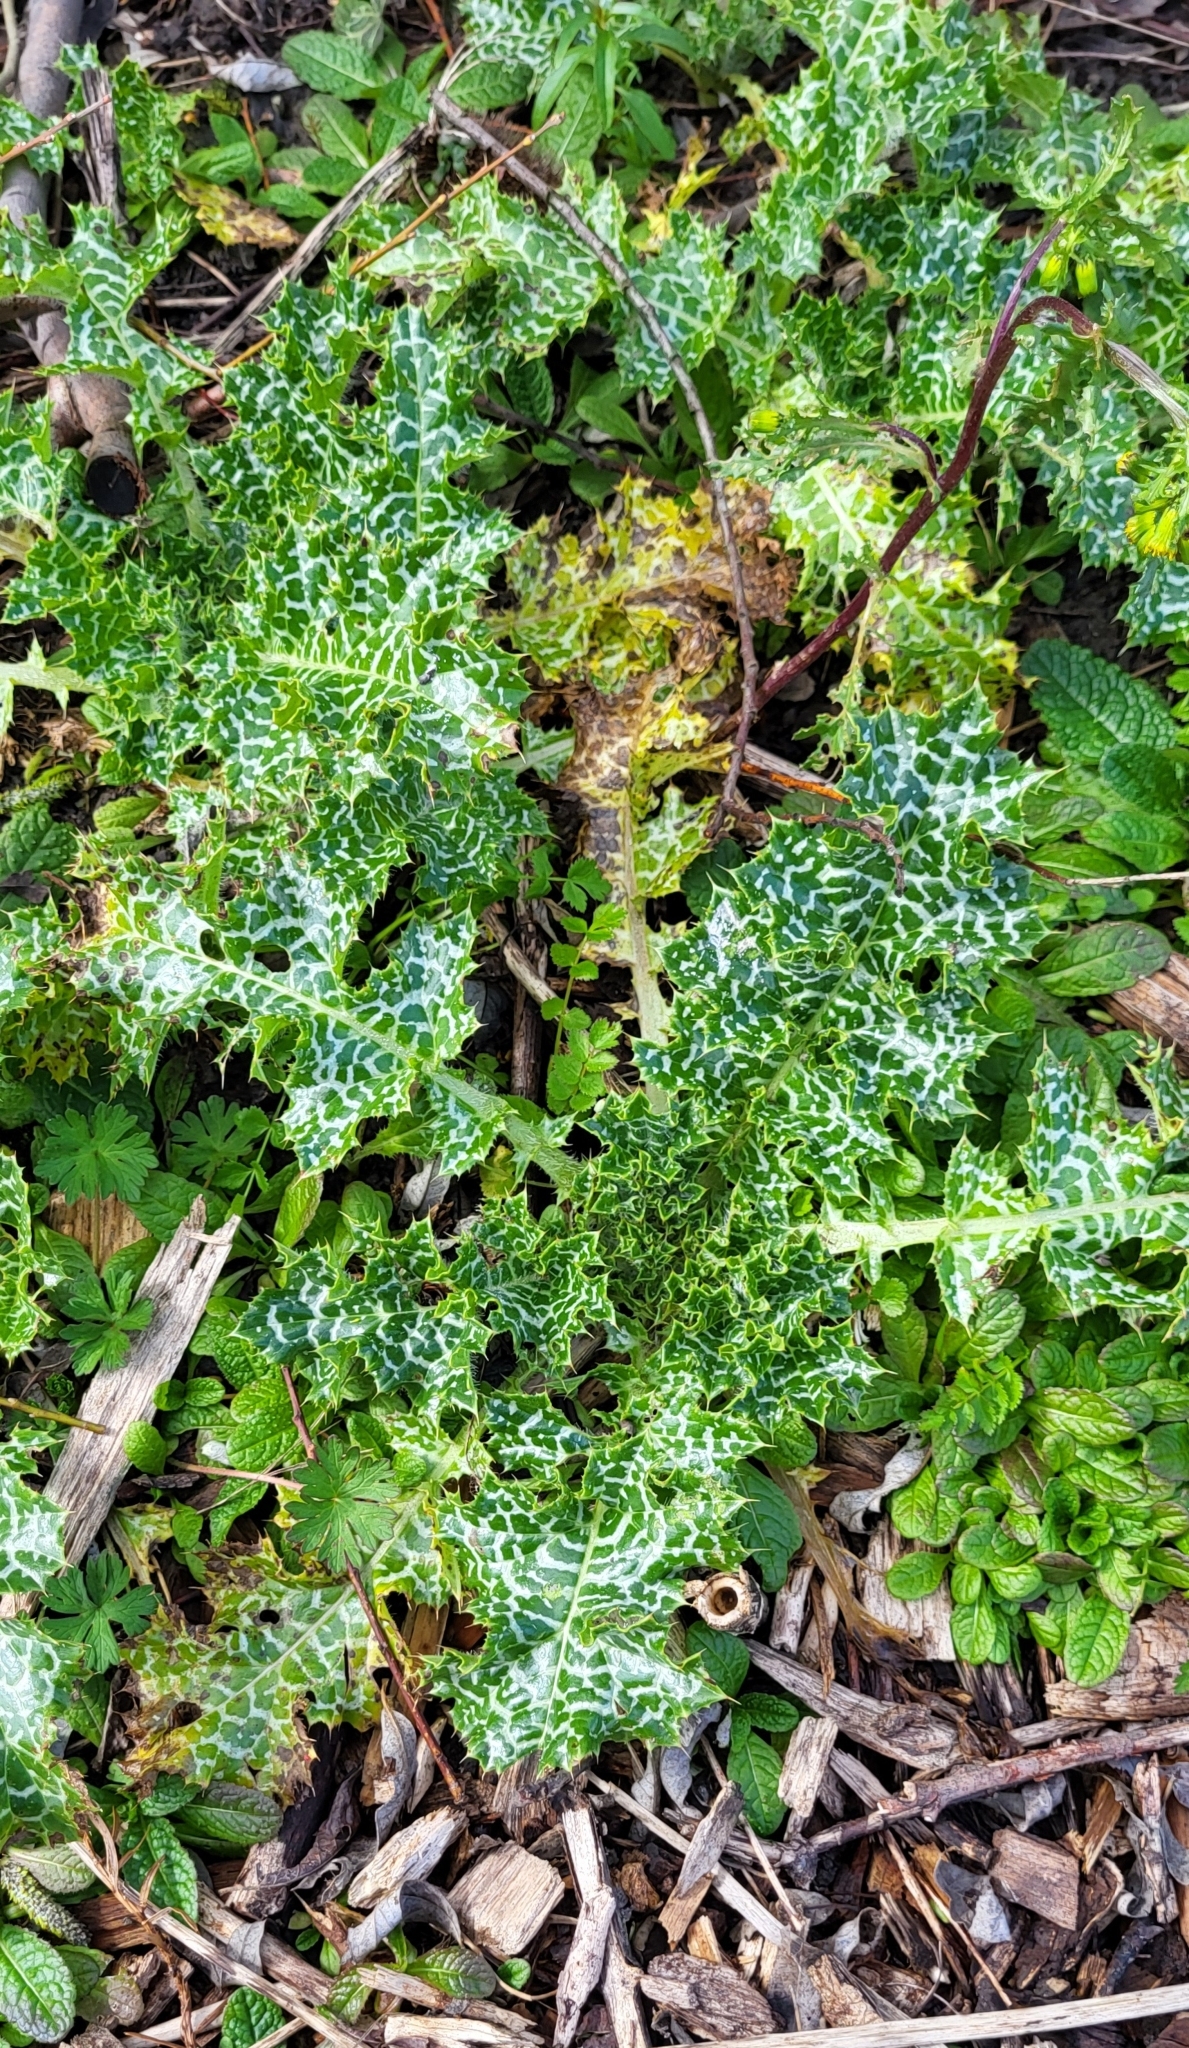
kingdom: Plantae
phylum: Tracheophyta
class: Magnoliopsida
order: Asterales
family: Asteraceae
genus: Silybum
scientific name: Silybum marianum
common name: Milk thistle
